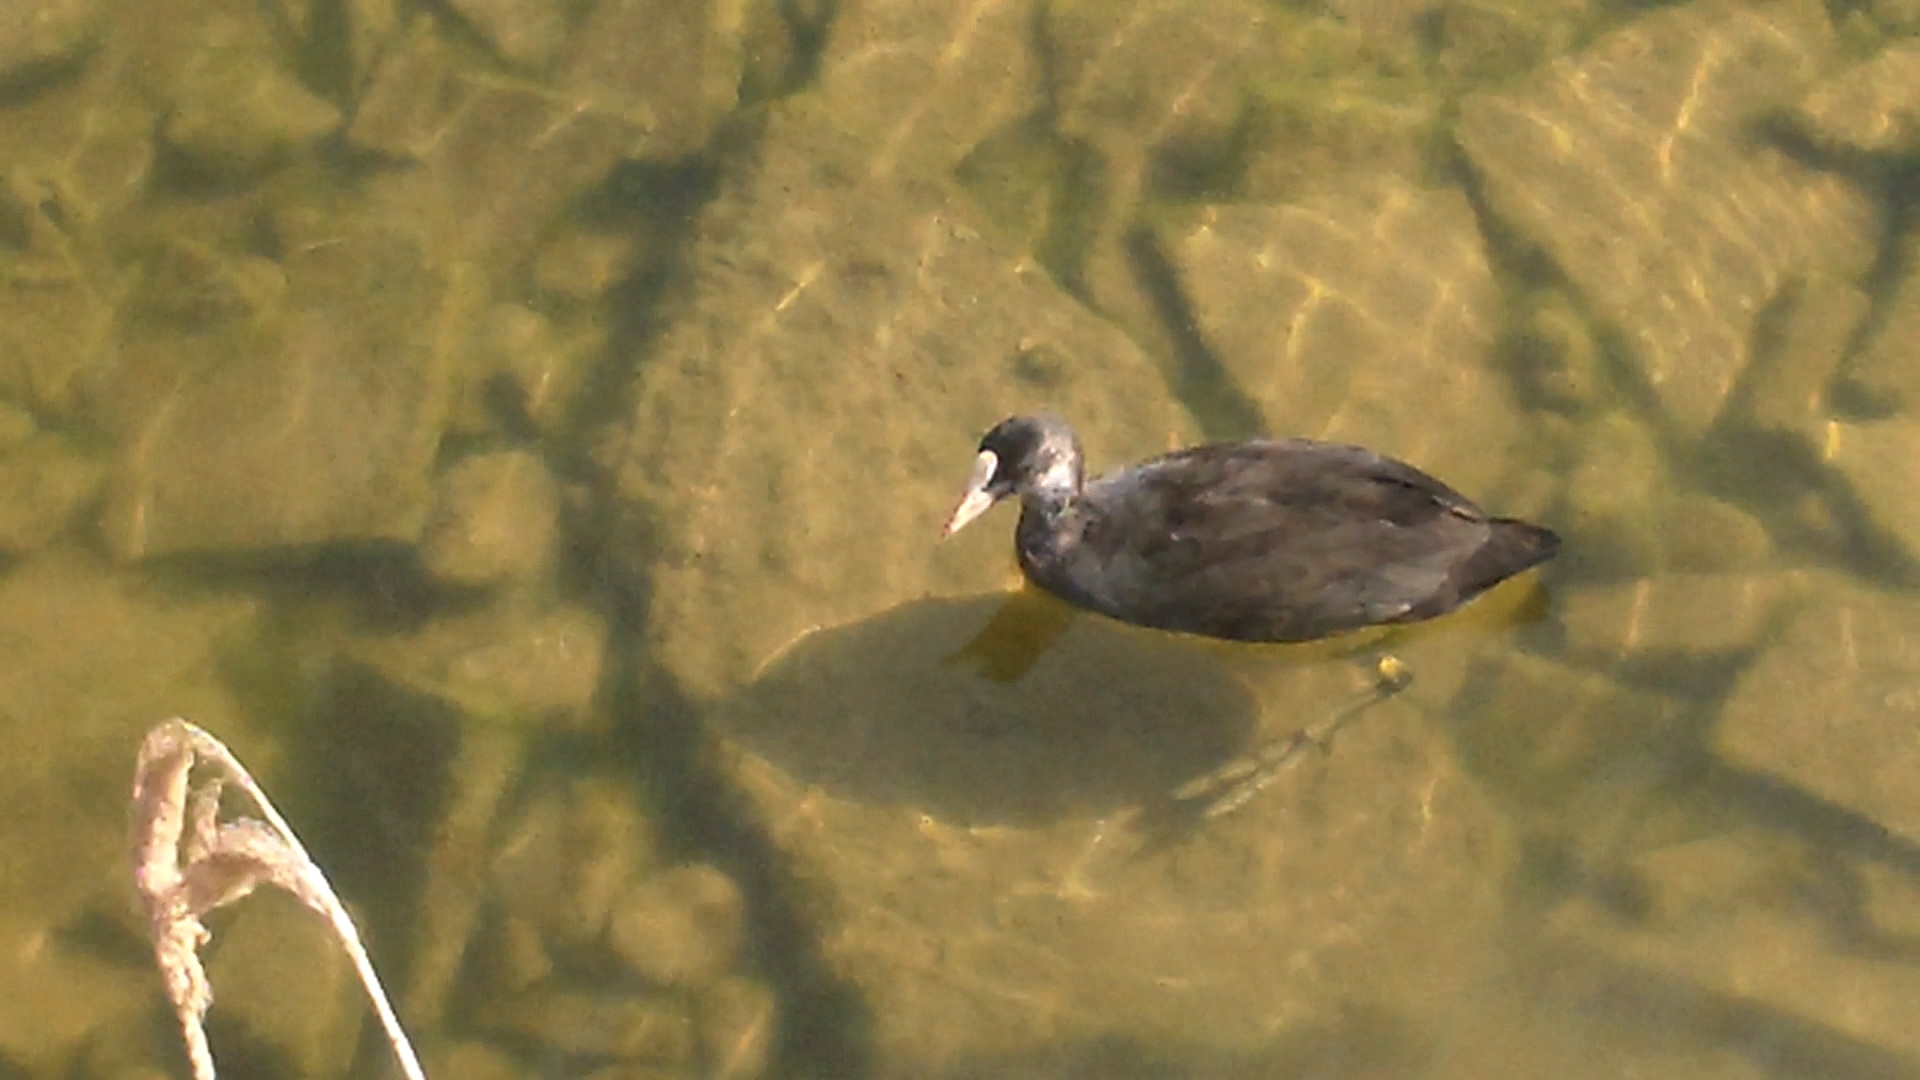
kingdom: Animalia
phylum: Chordata
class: Aves
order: Gruiformes
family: Rallidae
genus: Fulica
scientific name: Fulica atra
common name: Eurasian coot
